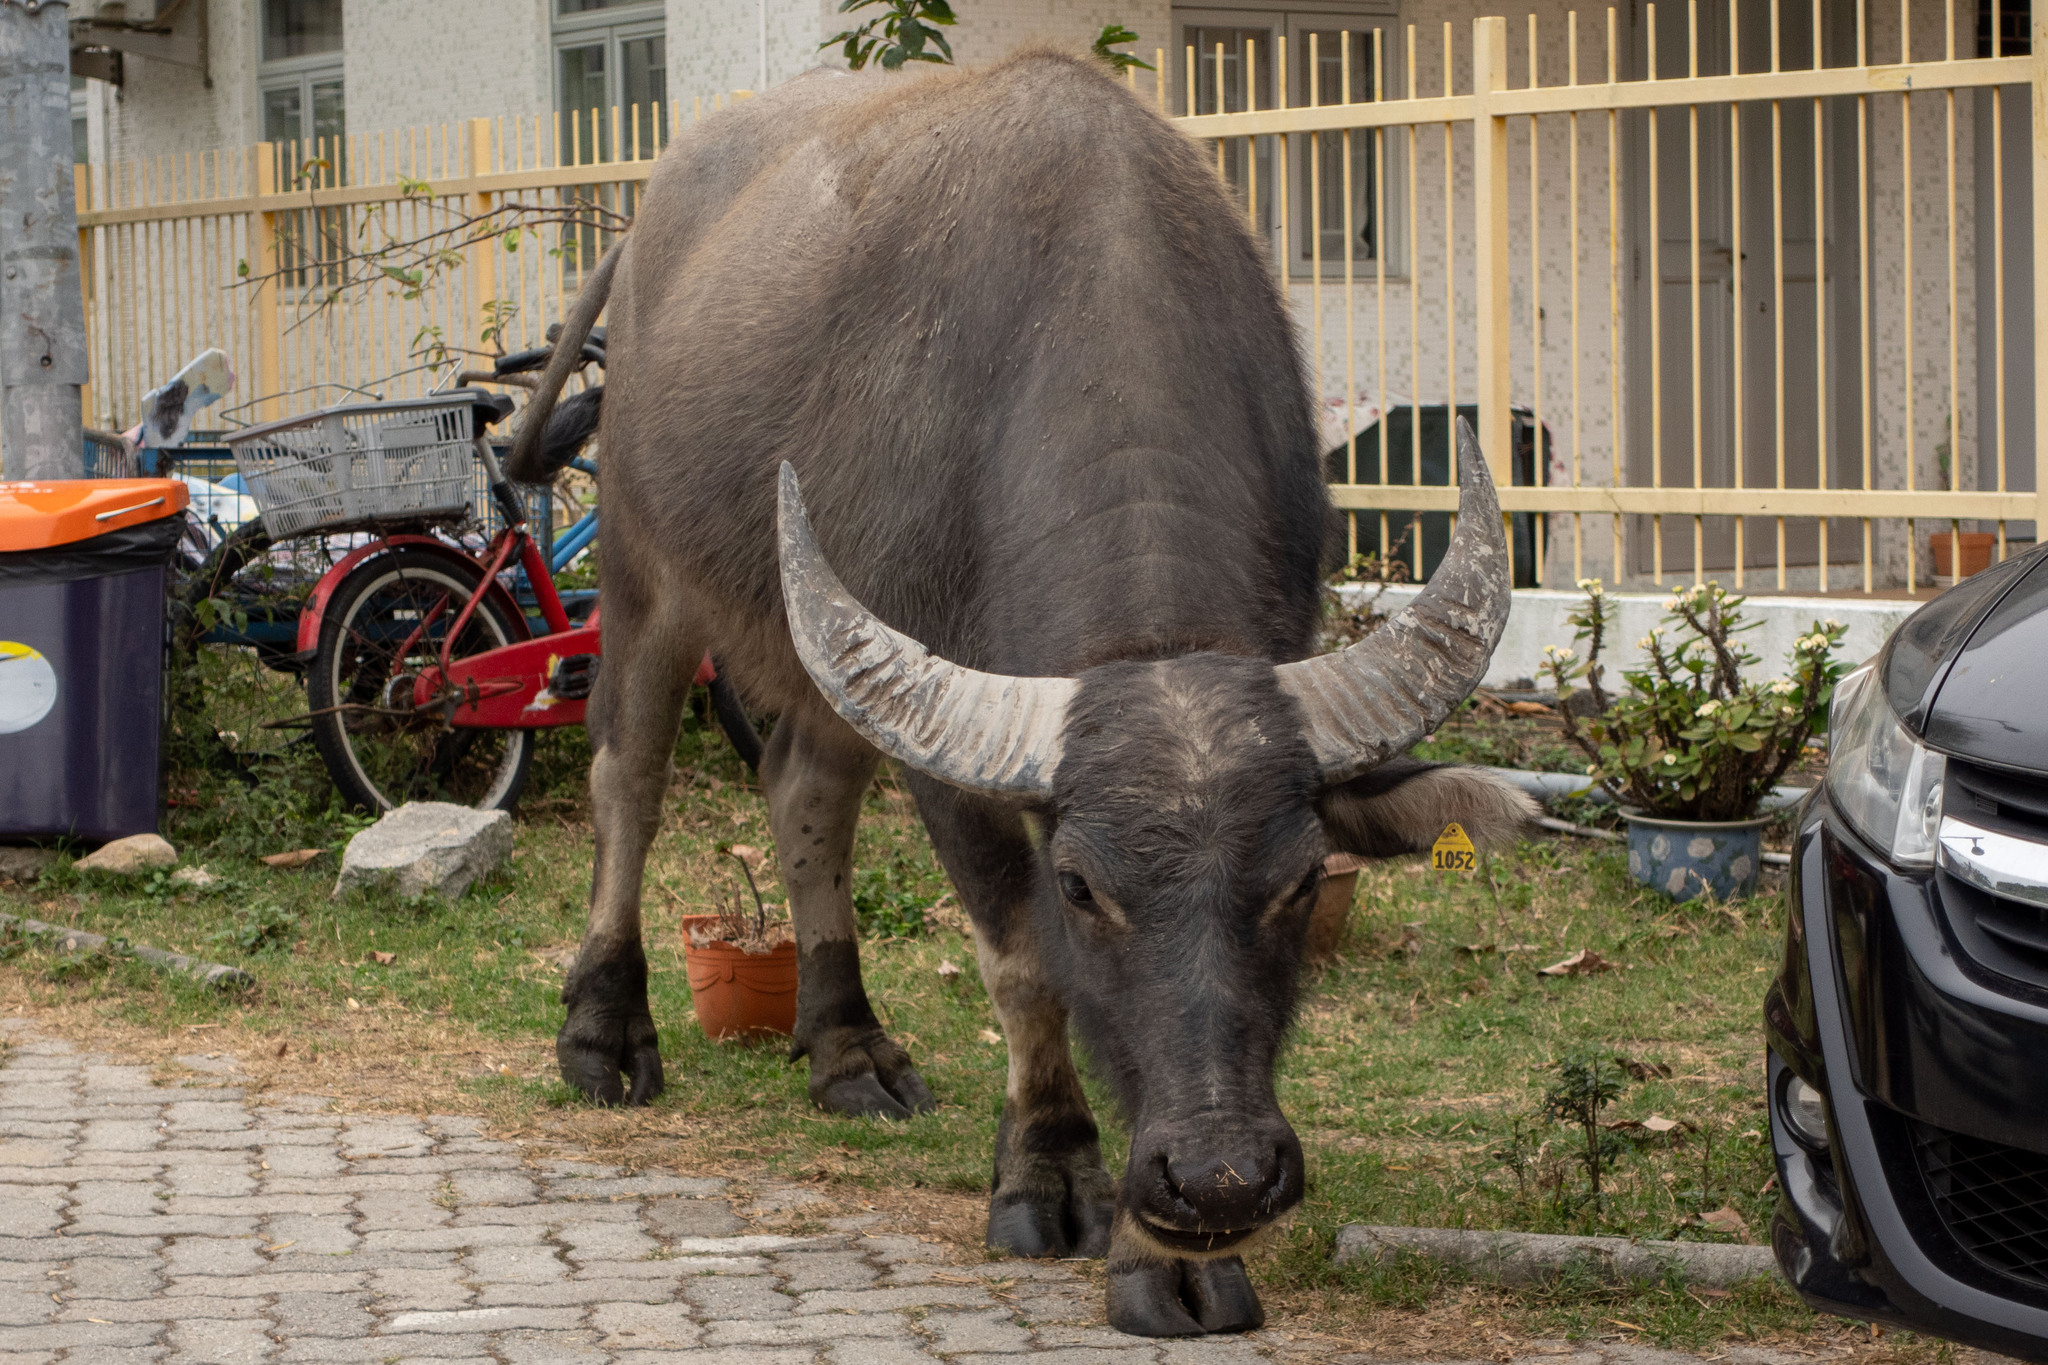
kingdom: Animalia
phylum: Chordata
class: Mammalia
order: Artiodactyla
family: Bovidae
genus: Bubalus
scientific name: Bubalus bubalis
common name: Water buffalo
